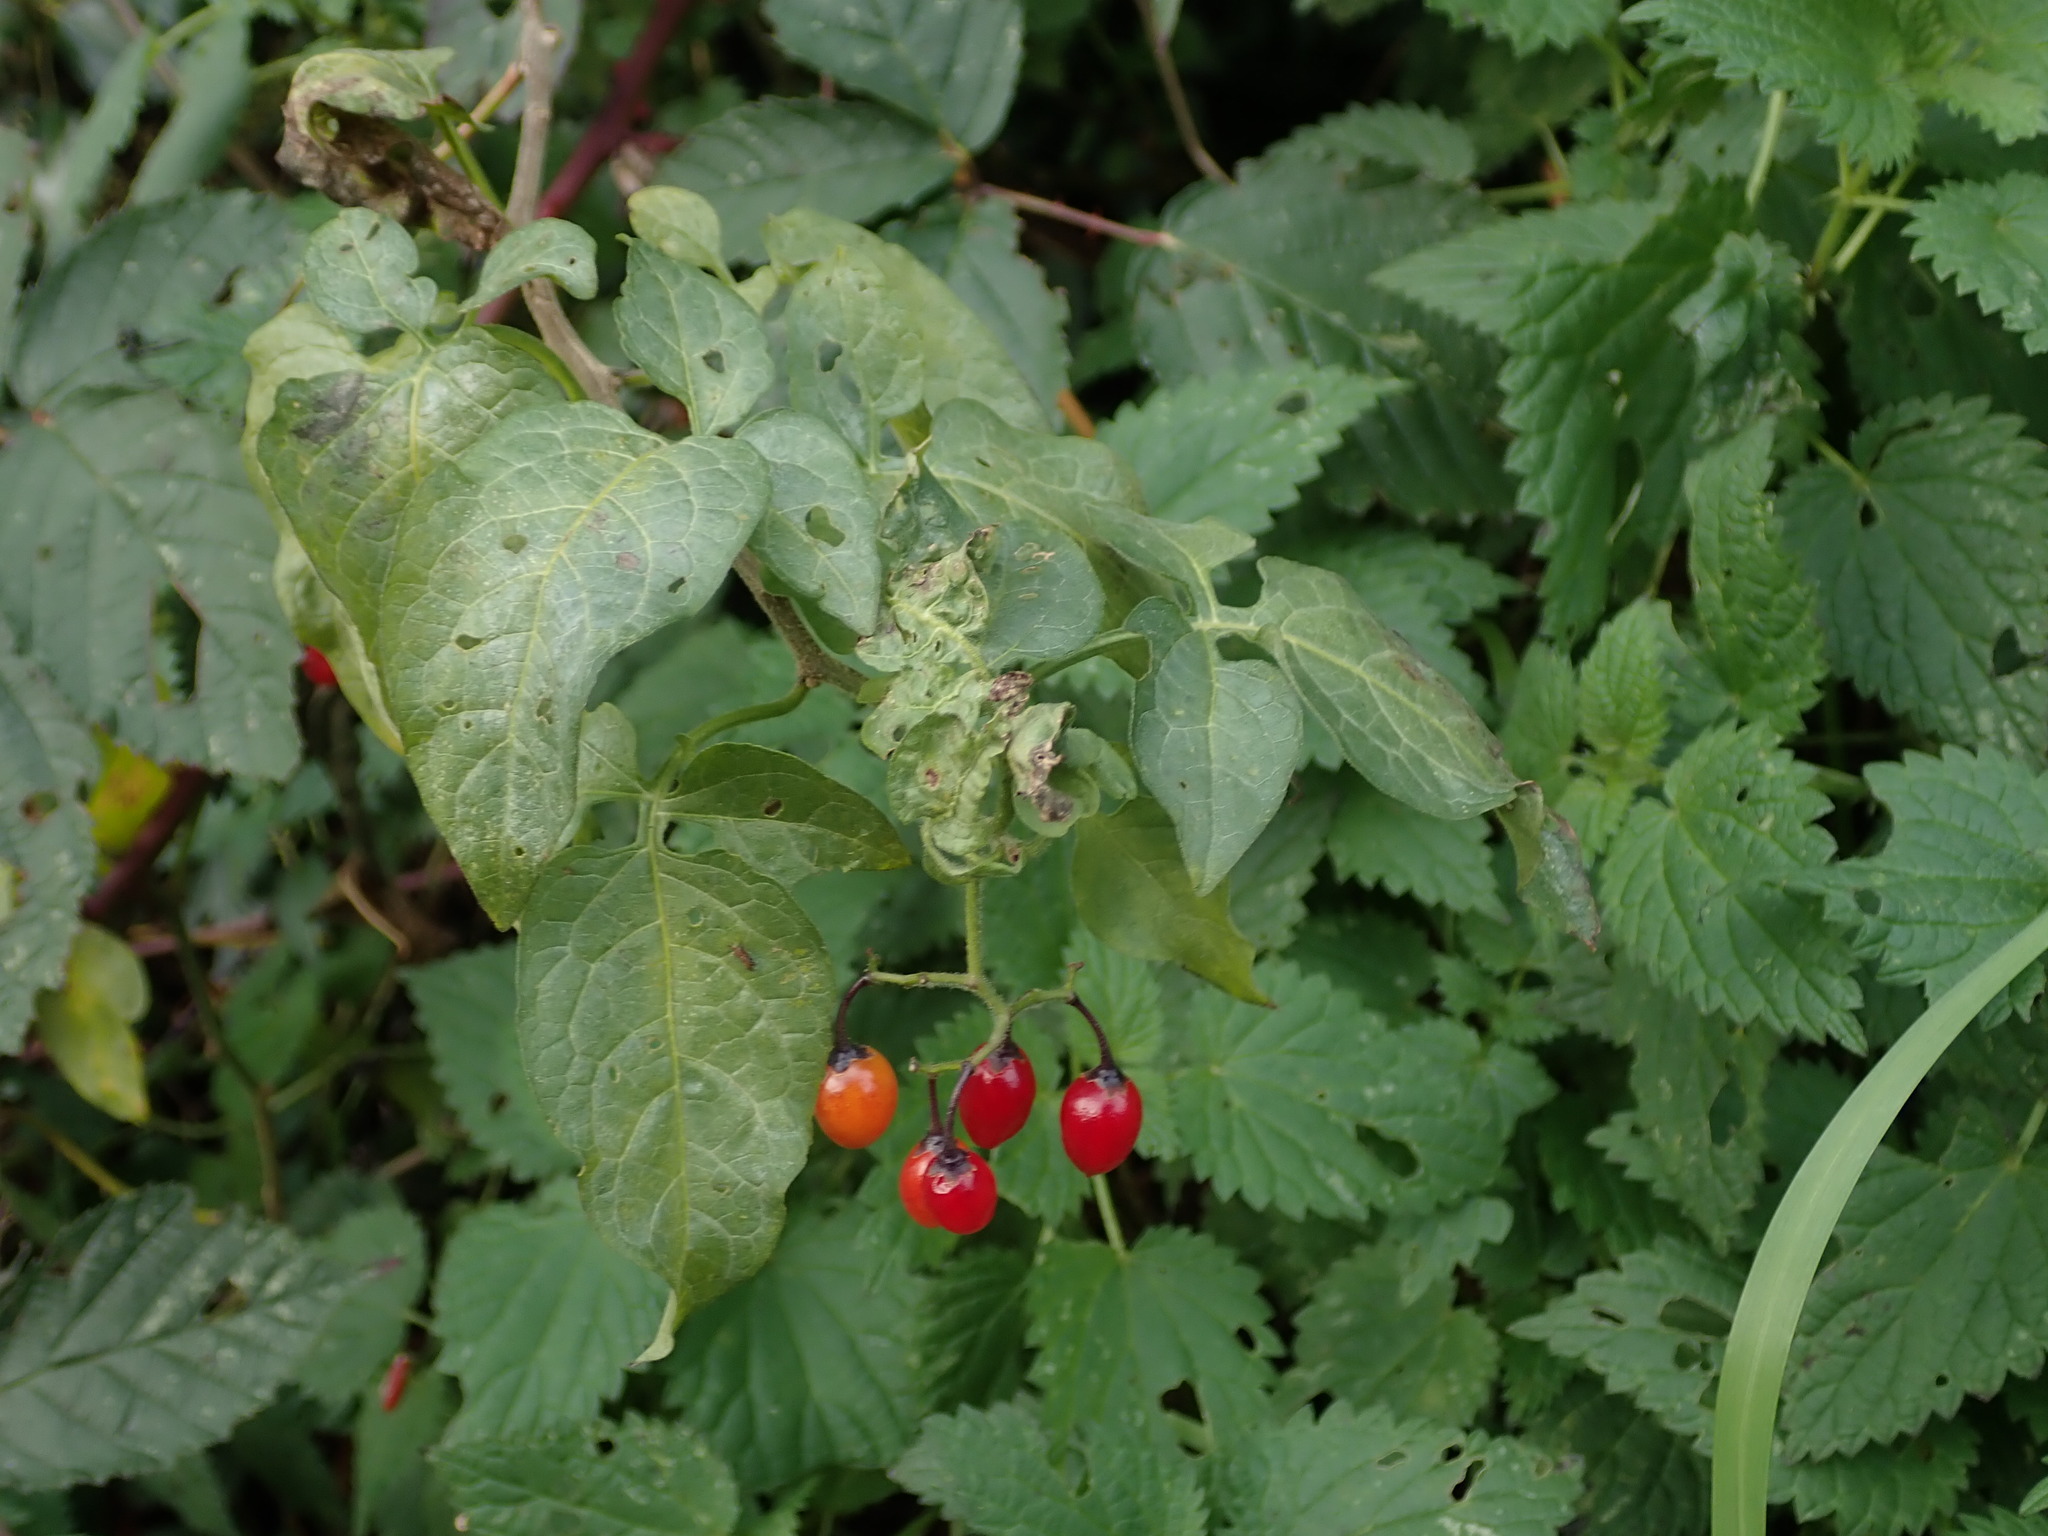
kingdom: Plantae
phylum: Tracheophyta
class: Magnoliopsida
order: Solanales
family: Solanaceae
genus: Solanum
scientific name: Solanum dulcamara
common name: Climbing nightshade
